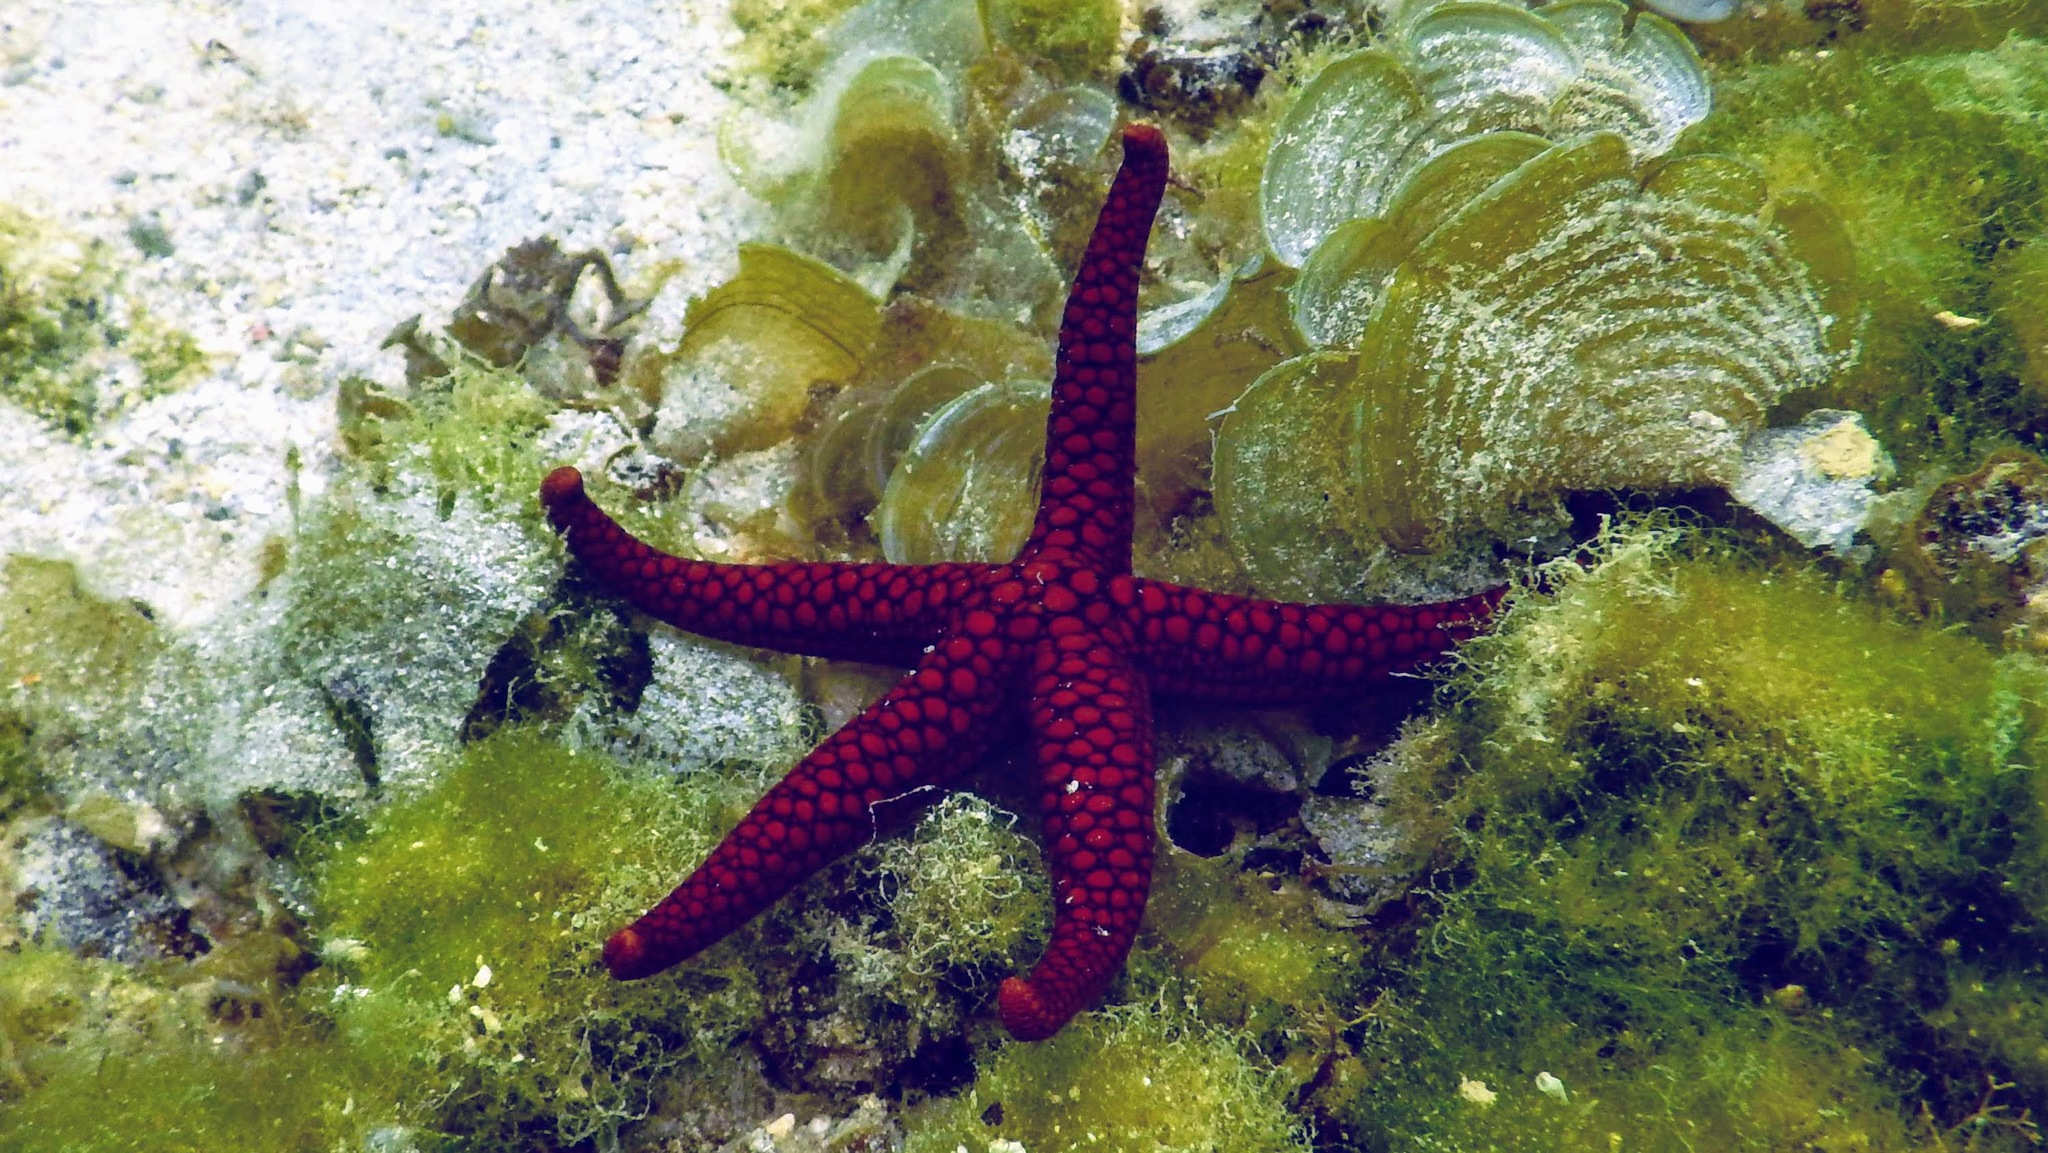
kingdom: Animalia
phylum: Echinodermata
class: Asteroidea
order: Valvatida
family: Ophidiasteridae
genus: Nardoa
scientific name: Nardoa variolata
